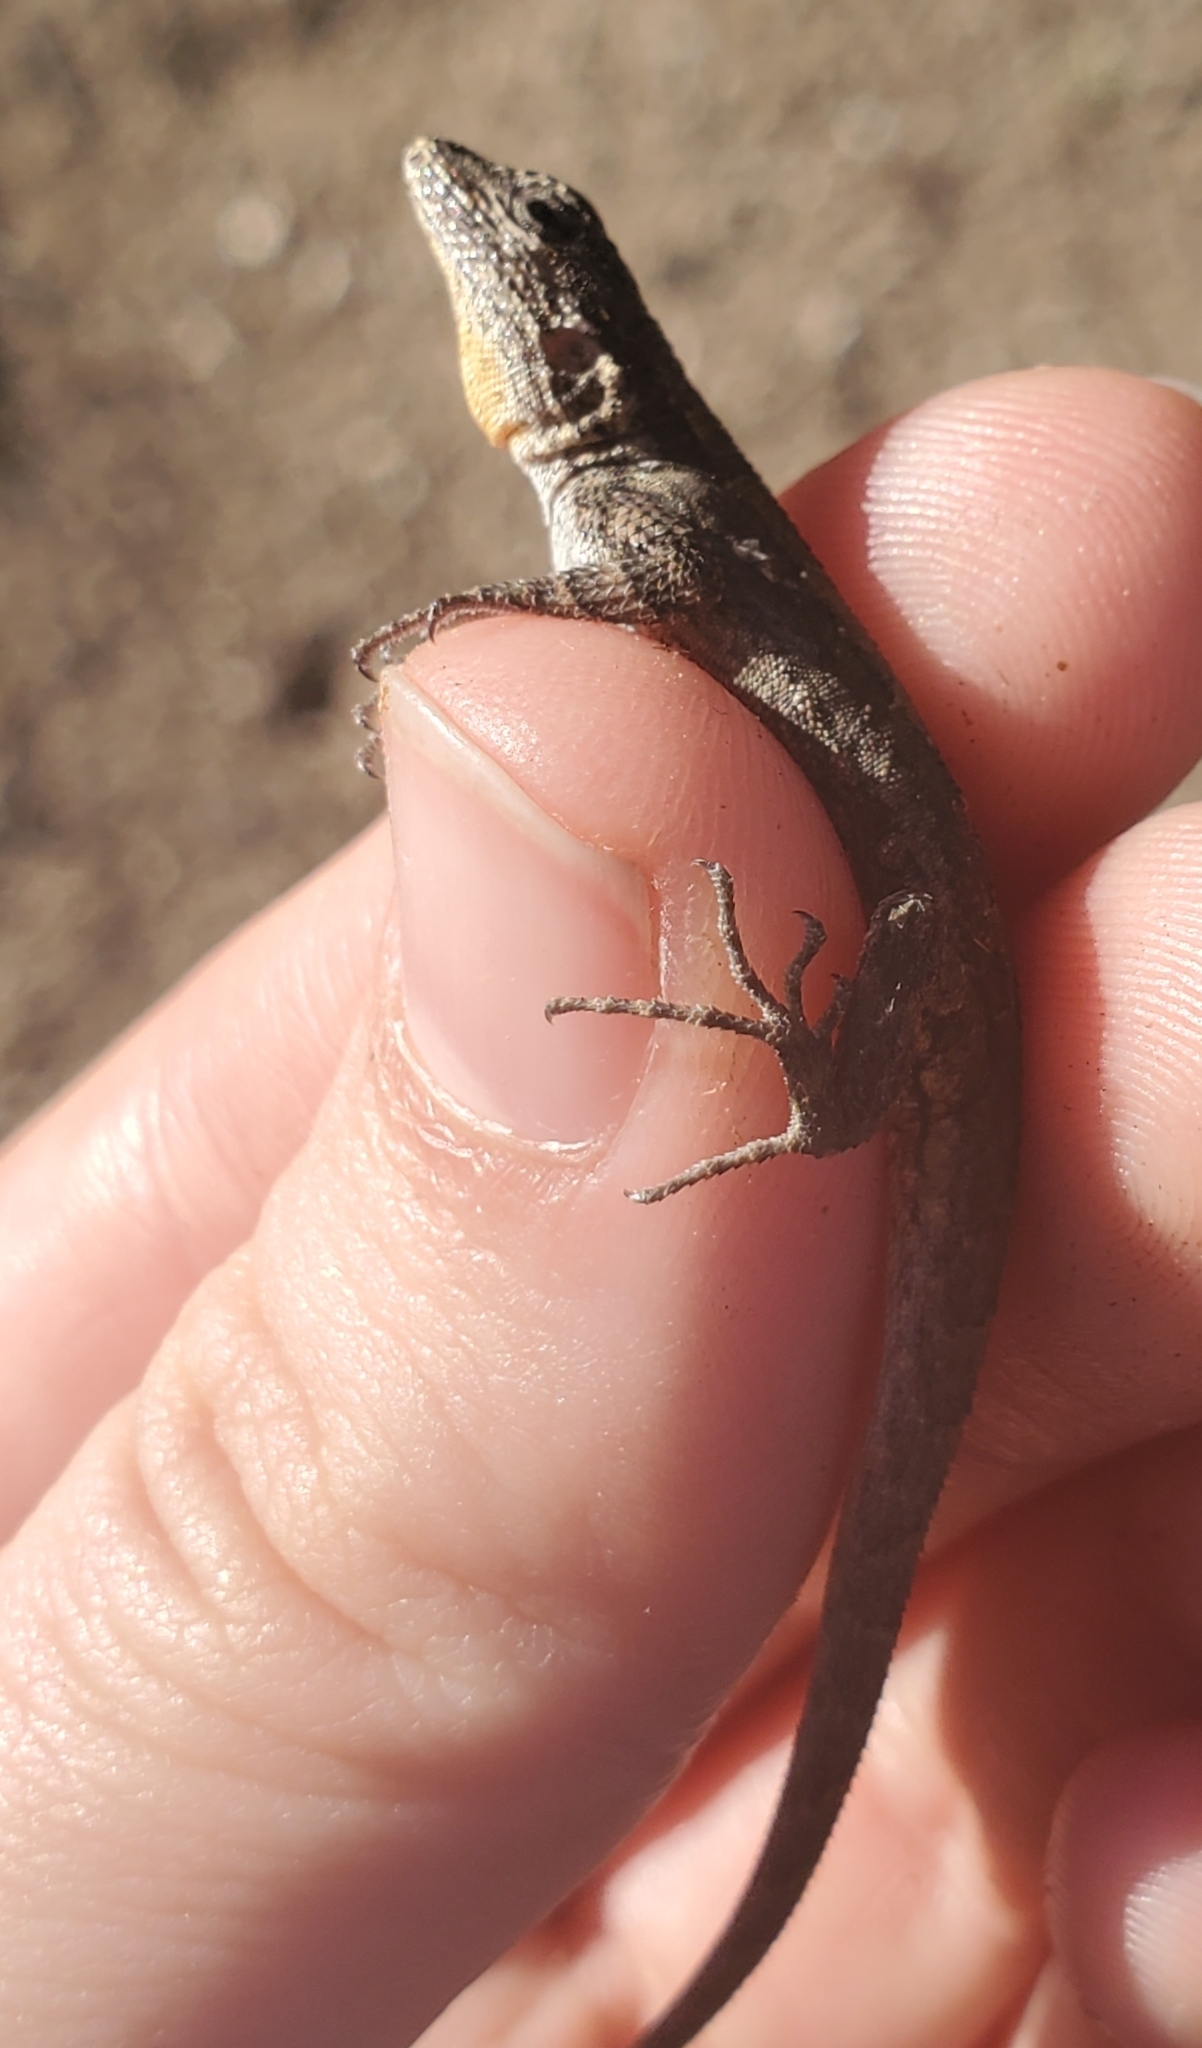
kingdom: Animalia
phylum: Chordata
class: Squamata
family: Phrynosomatidae
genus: Urosaurus
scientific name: Urosaurus ornatus
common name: Ornate tree lizard
